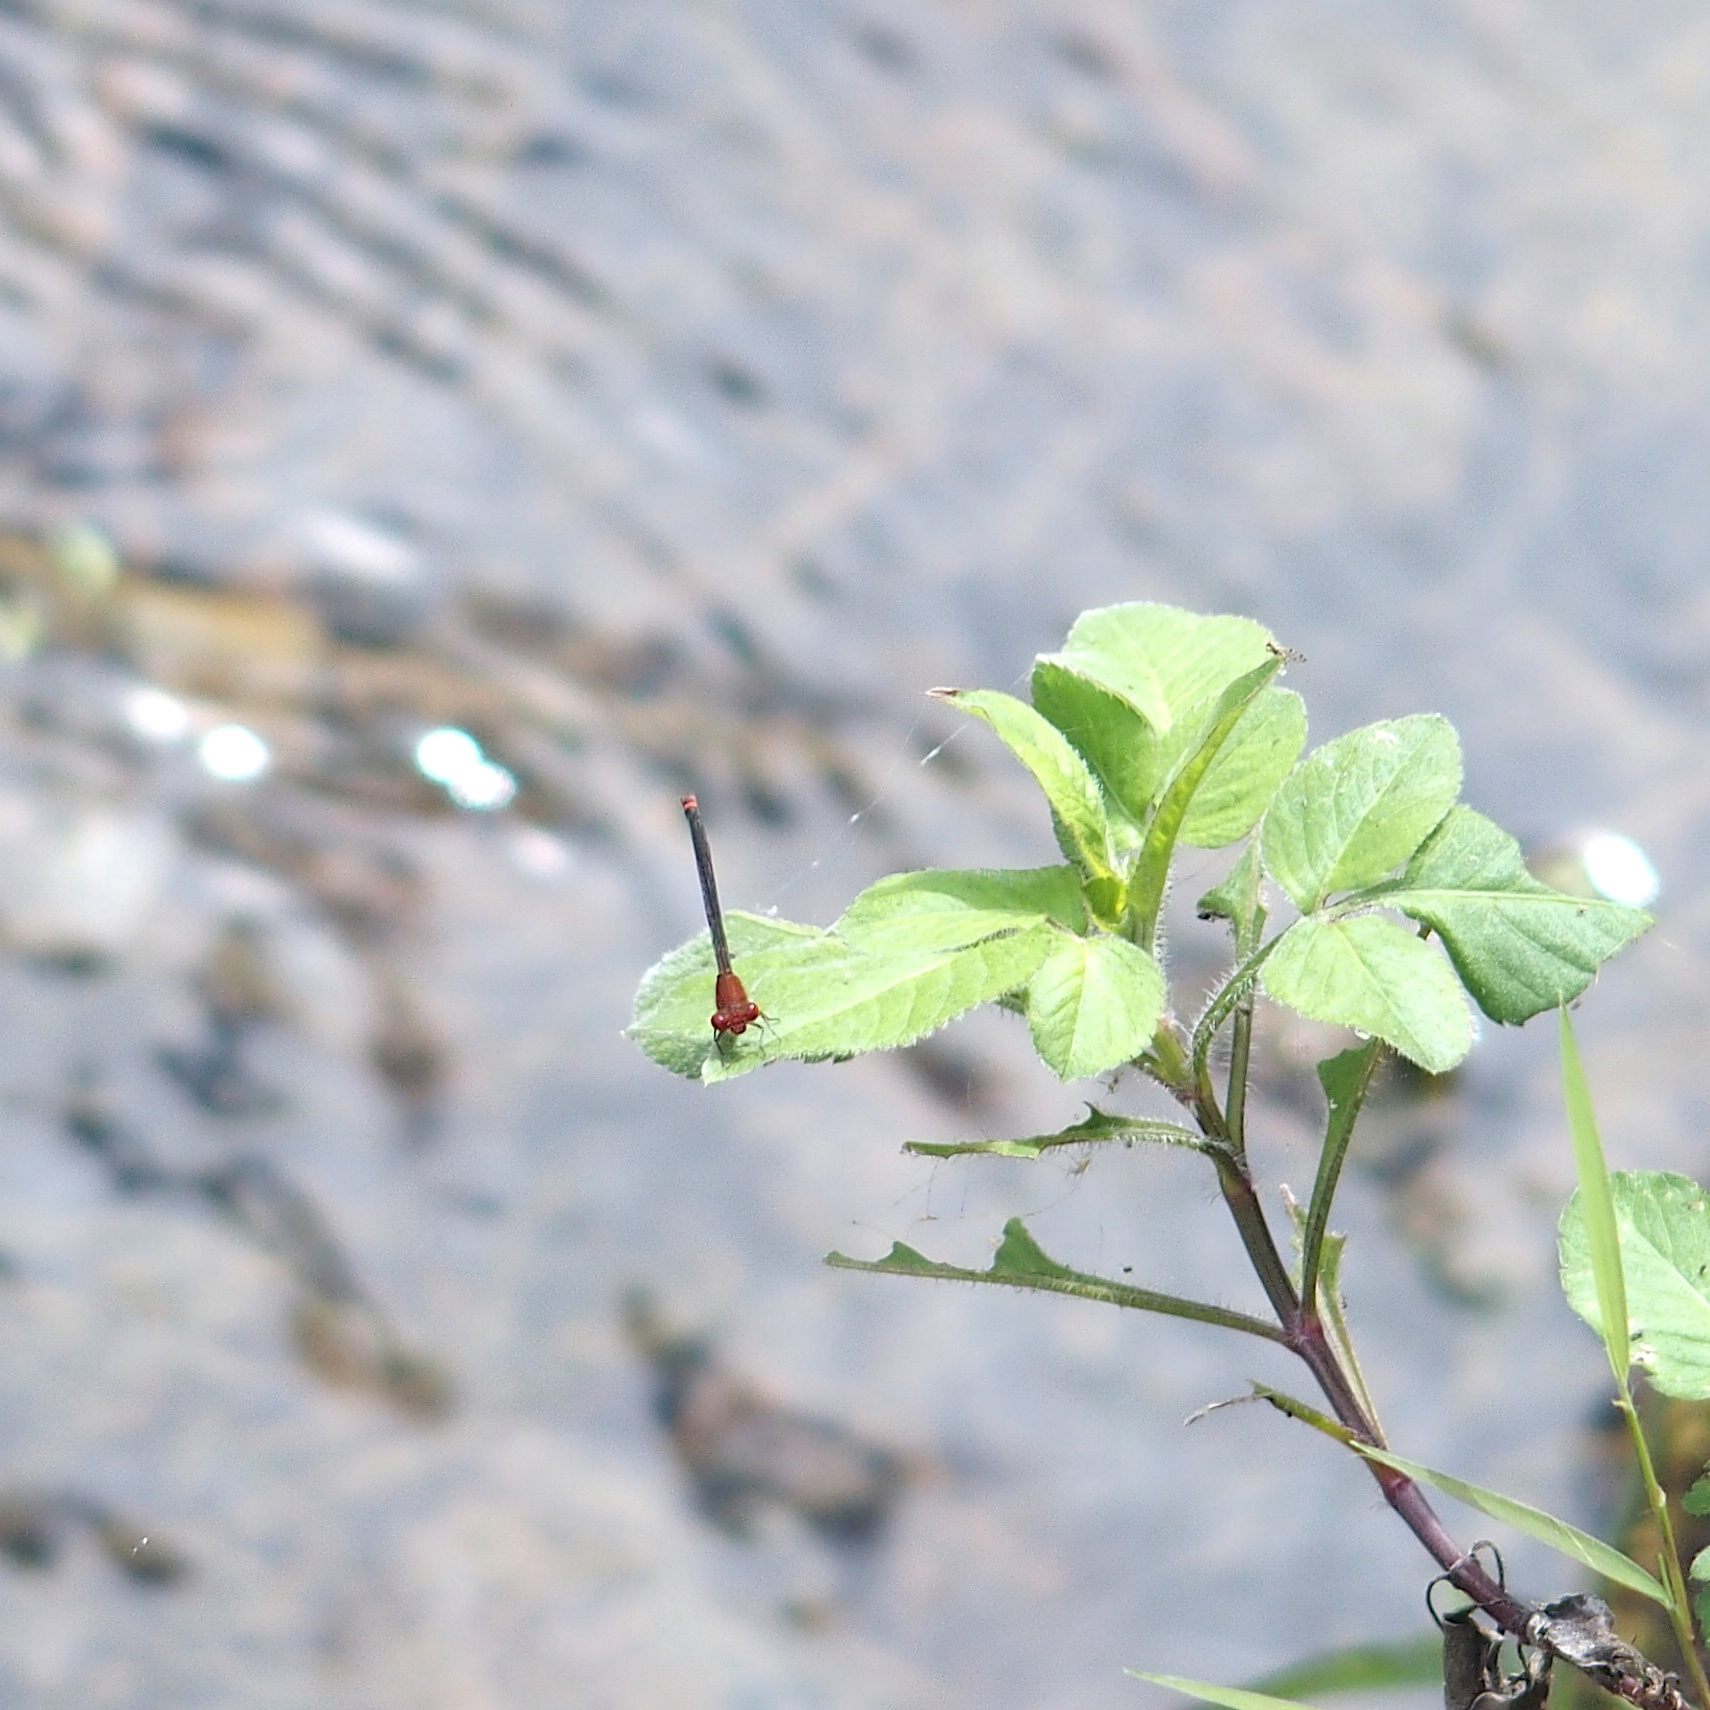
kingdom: Animalia
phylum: Arthropoda
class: Insecta
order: Odonata
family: Coenagrionidae
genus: Pseudagrion
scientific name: Pseudagrion pilidorsum
